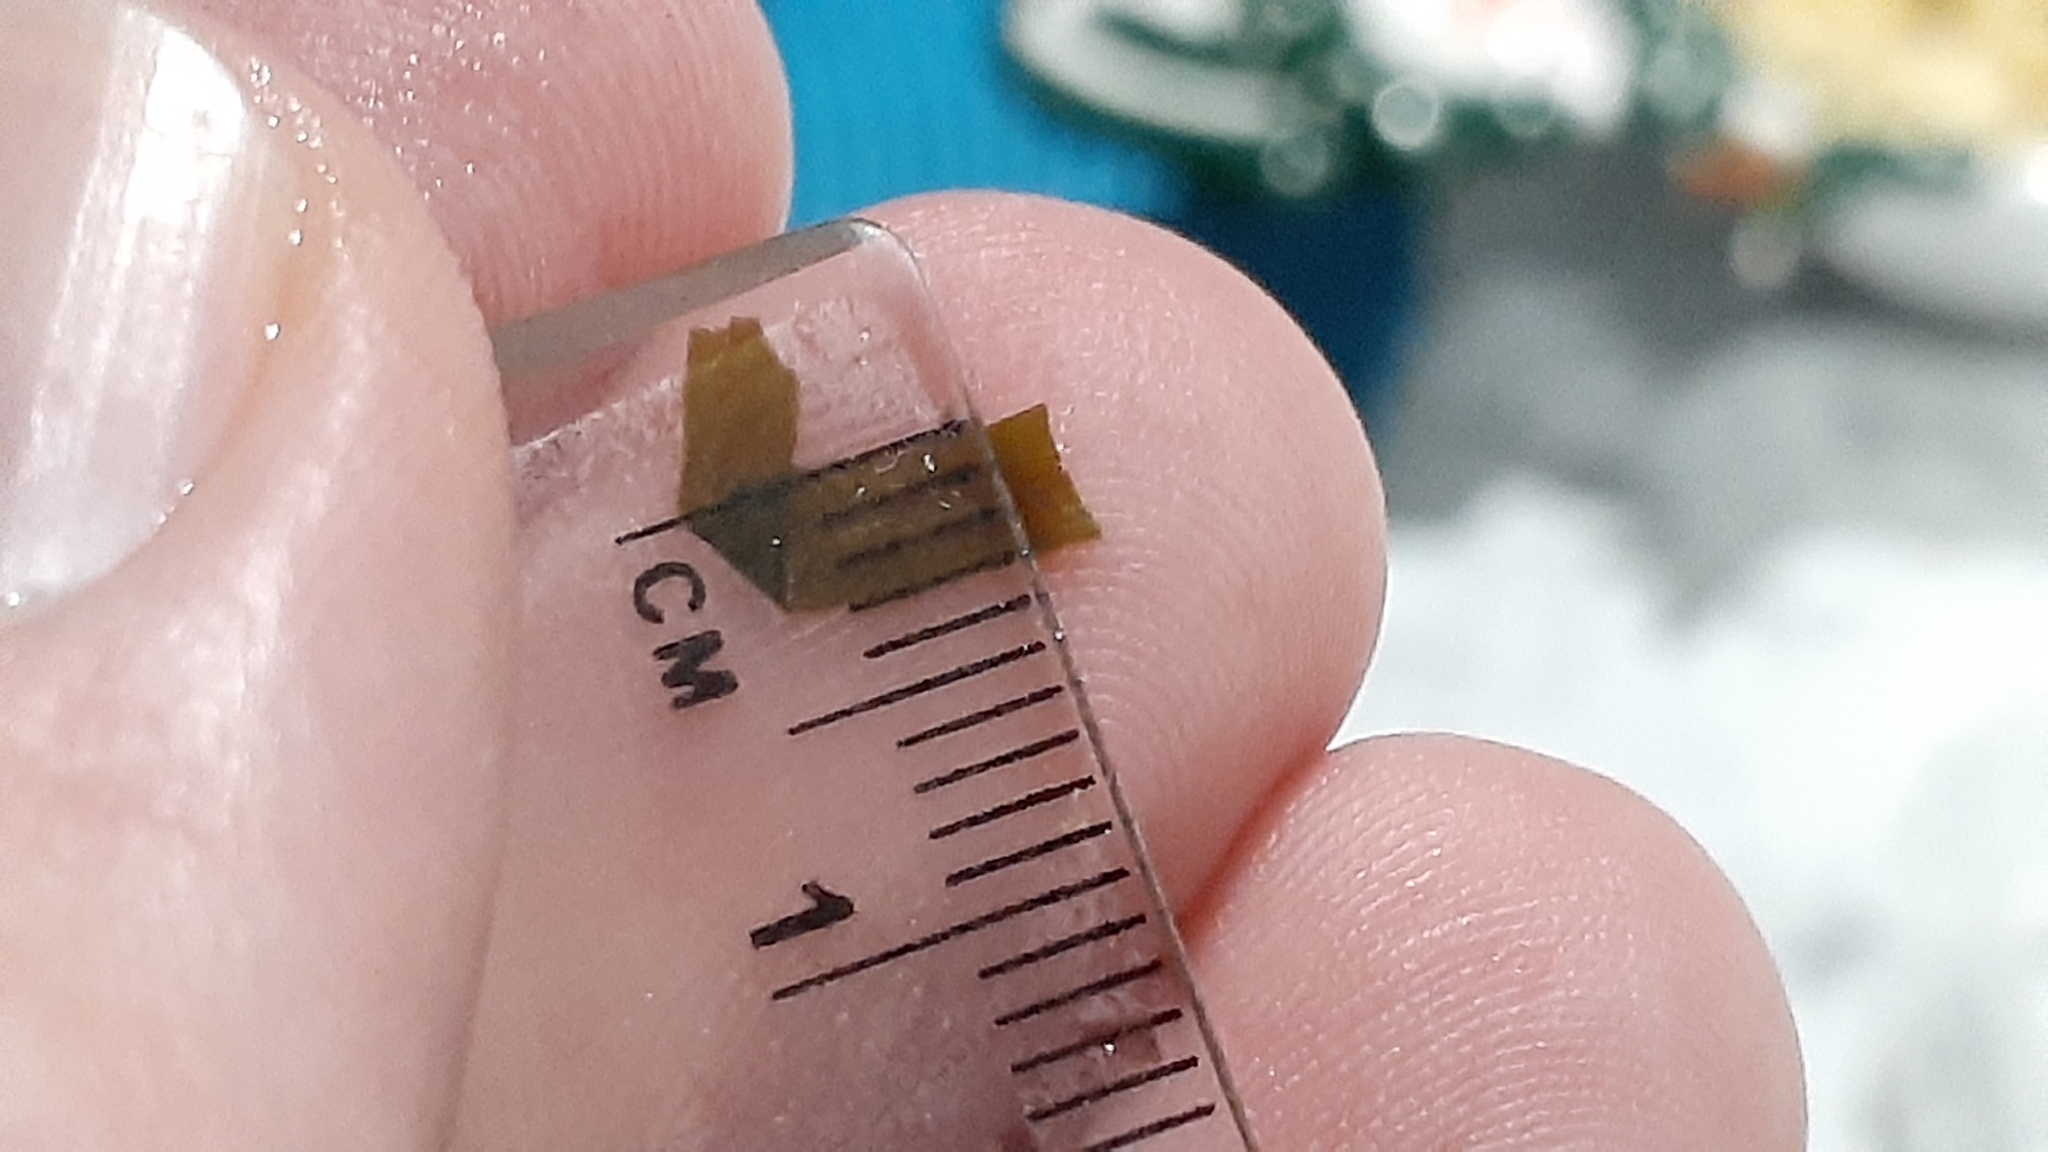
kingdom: Plantae
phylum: Tracheophyta
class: Liliopsida
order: Alismatales
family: Potamogetonaceae
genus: Potamogeton
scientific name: Potamogeton obtusifolius
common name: Blunt-leaved pondweed
